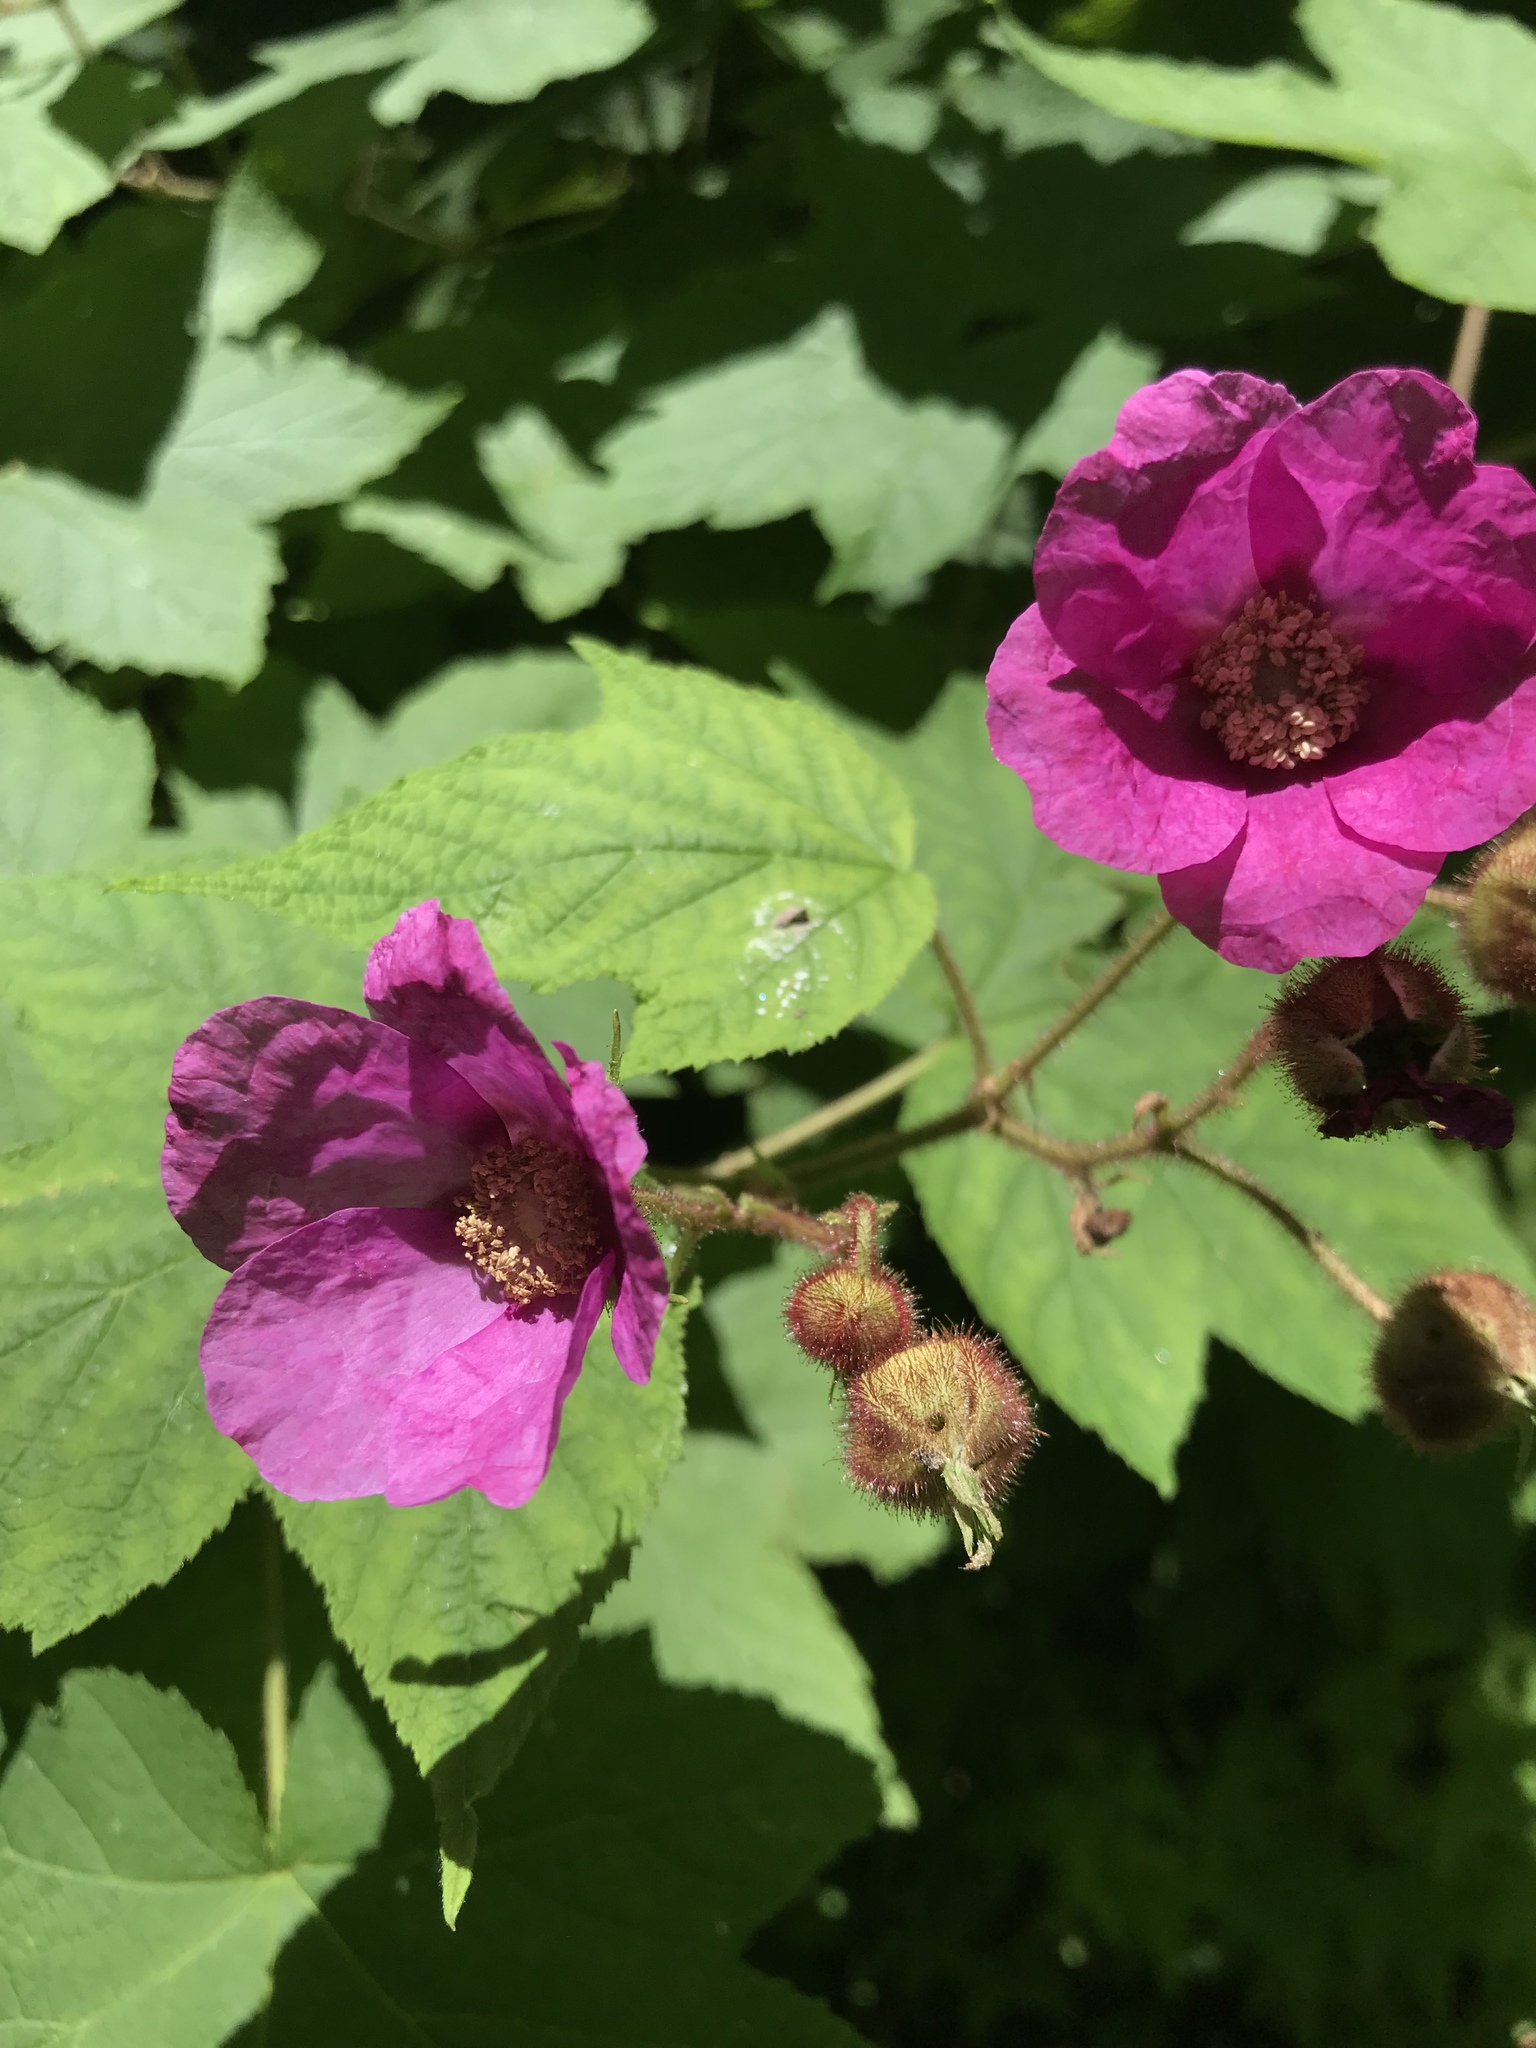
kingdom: Plantae
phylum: Tracheophyta
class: Magnoliopsida
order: Rosales
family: Rosaceae
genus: Rubus
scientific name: Rubus odoratus
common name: Purple-flowered raspberry
